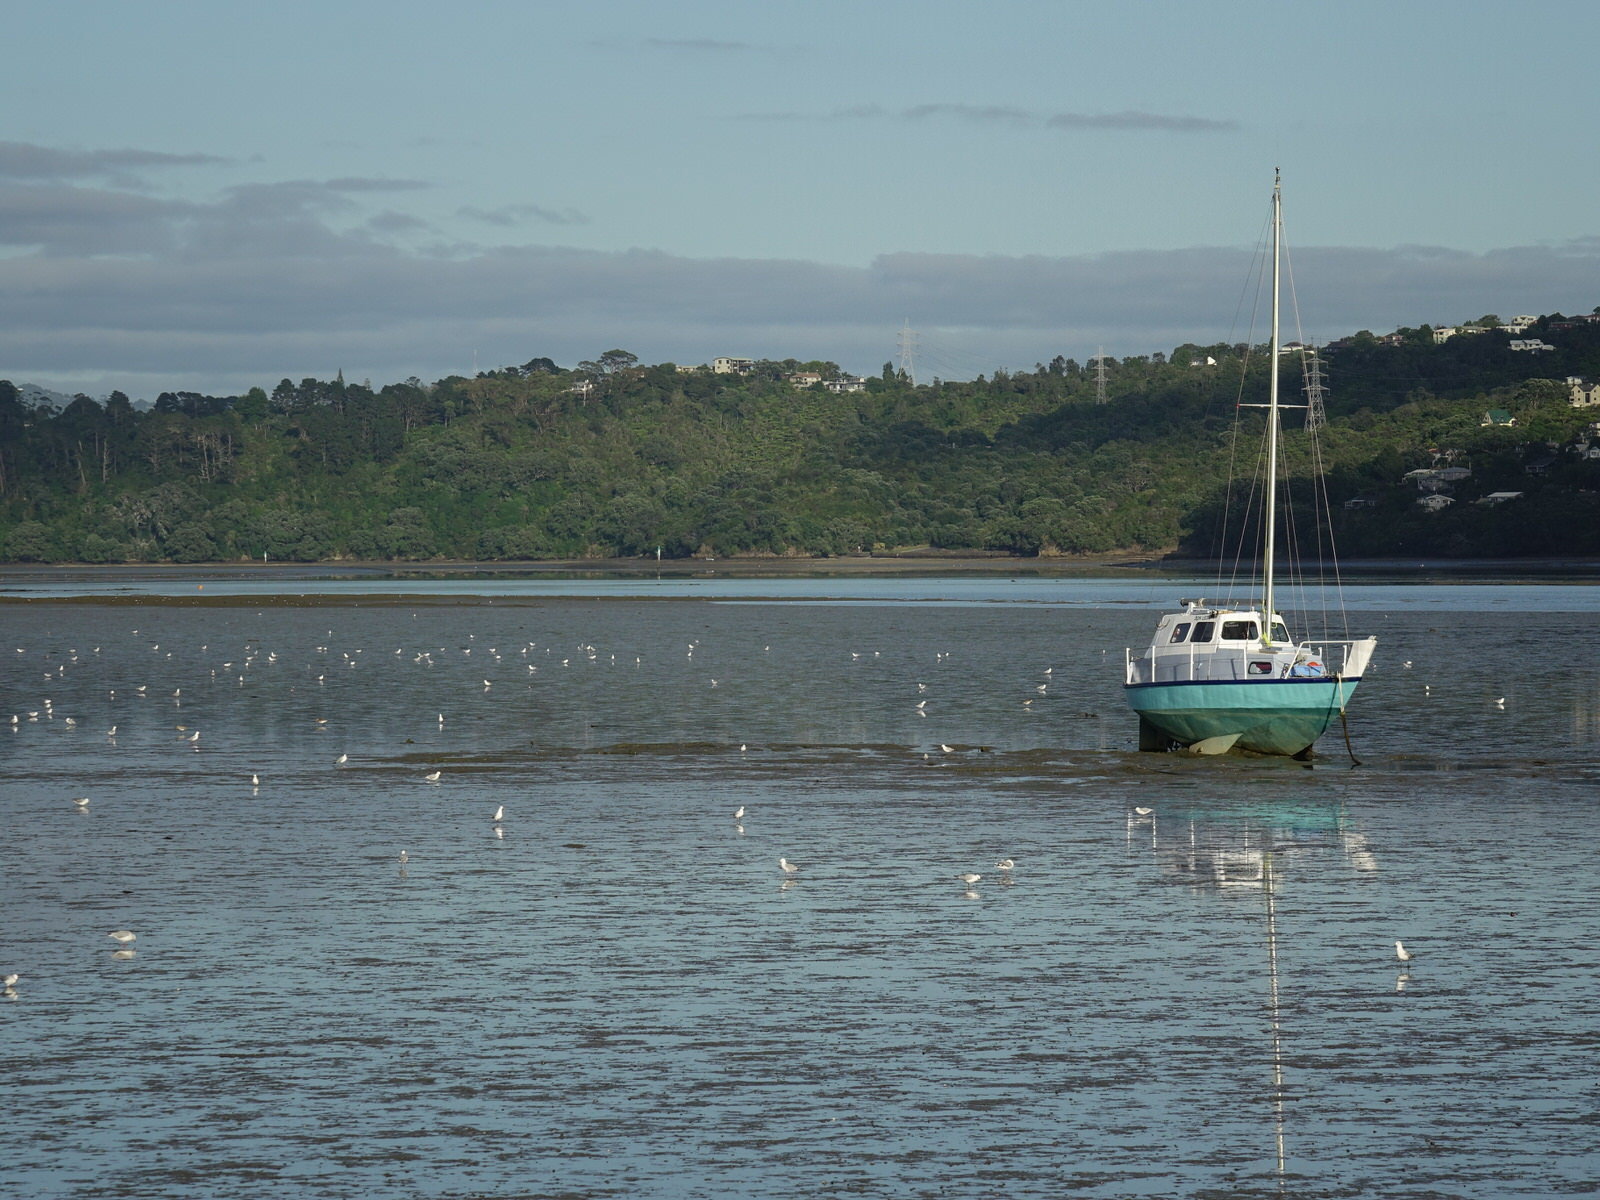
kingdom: Animalia
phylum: Chordata
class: Aves
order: Charadriiformes
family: Laridae
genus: Chroicocephalus
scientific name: Chroicocephalus novaehollandiae
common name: Silver gull
